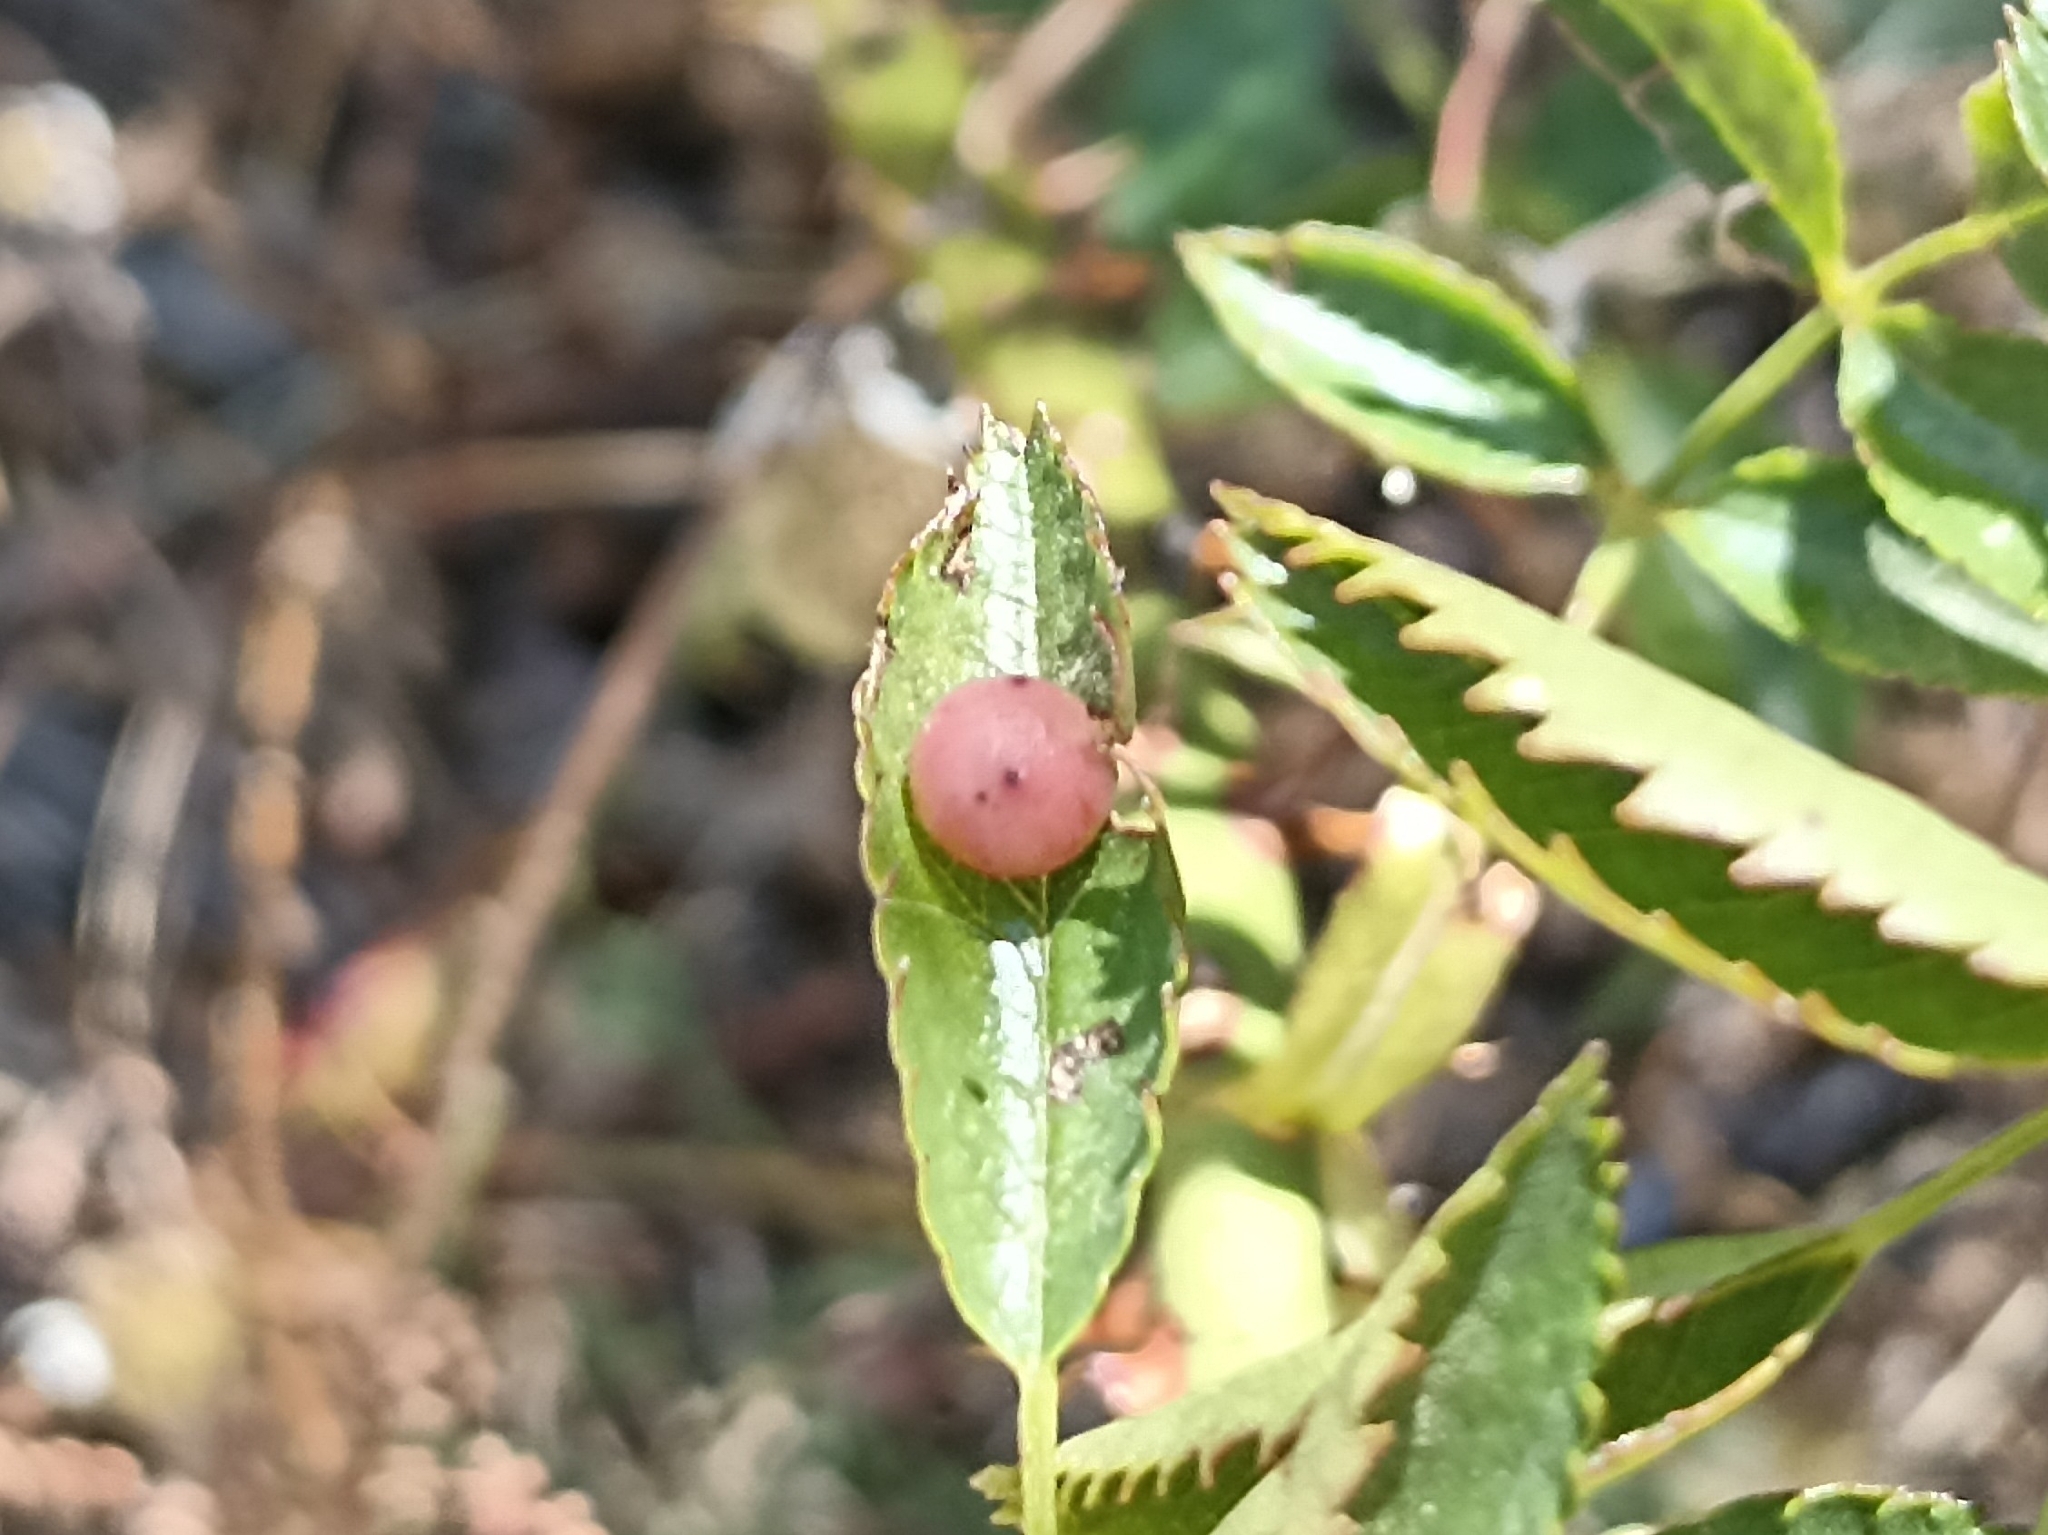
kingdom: Animalia
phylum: Arthropoda
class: Insecta
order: Hymenoptera
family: Cynipidae
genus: Diplolepis
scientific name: Diplolepis
